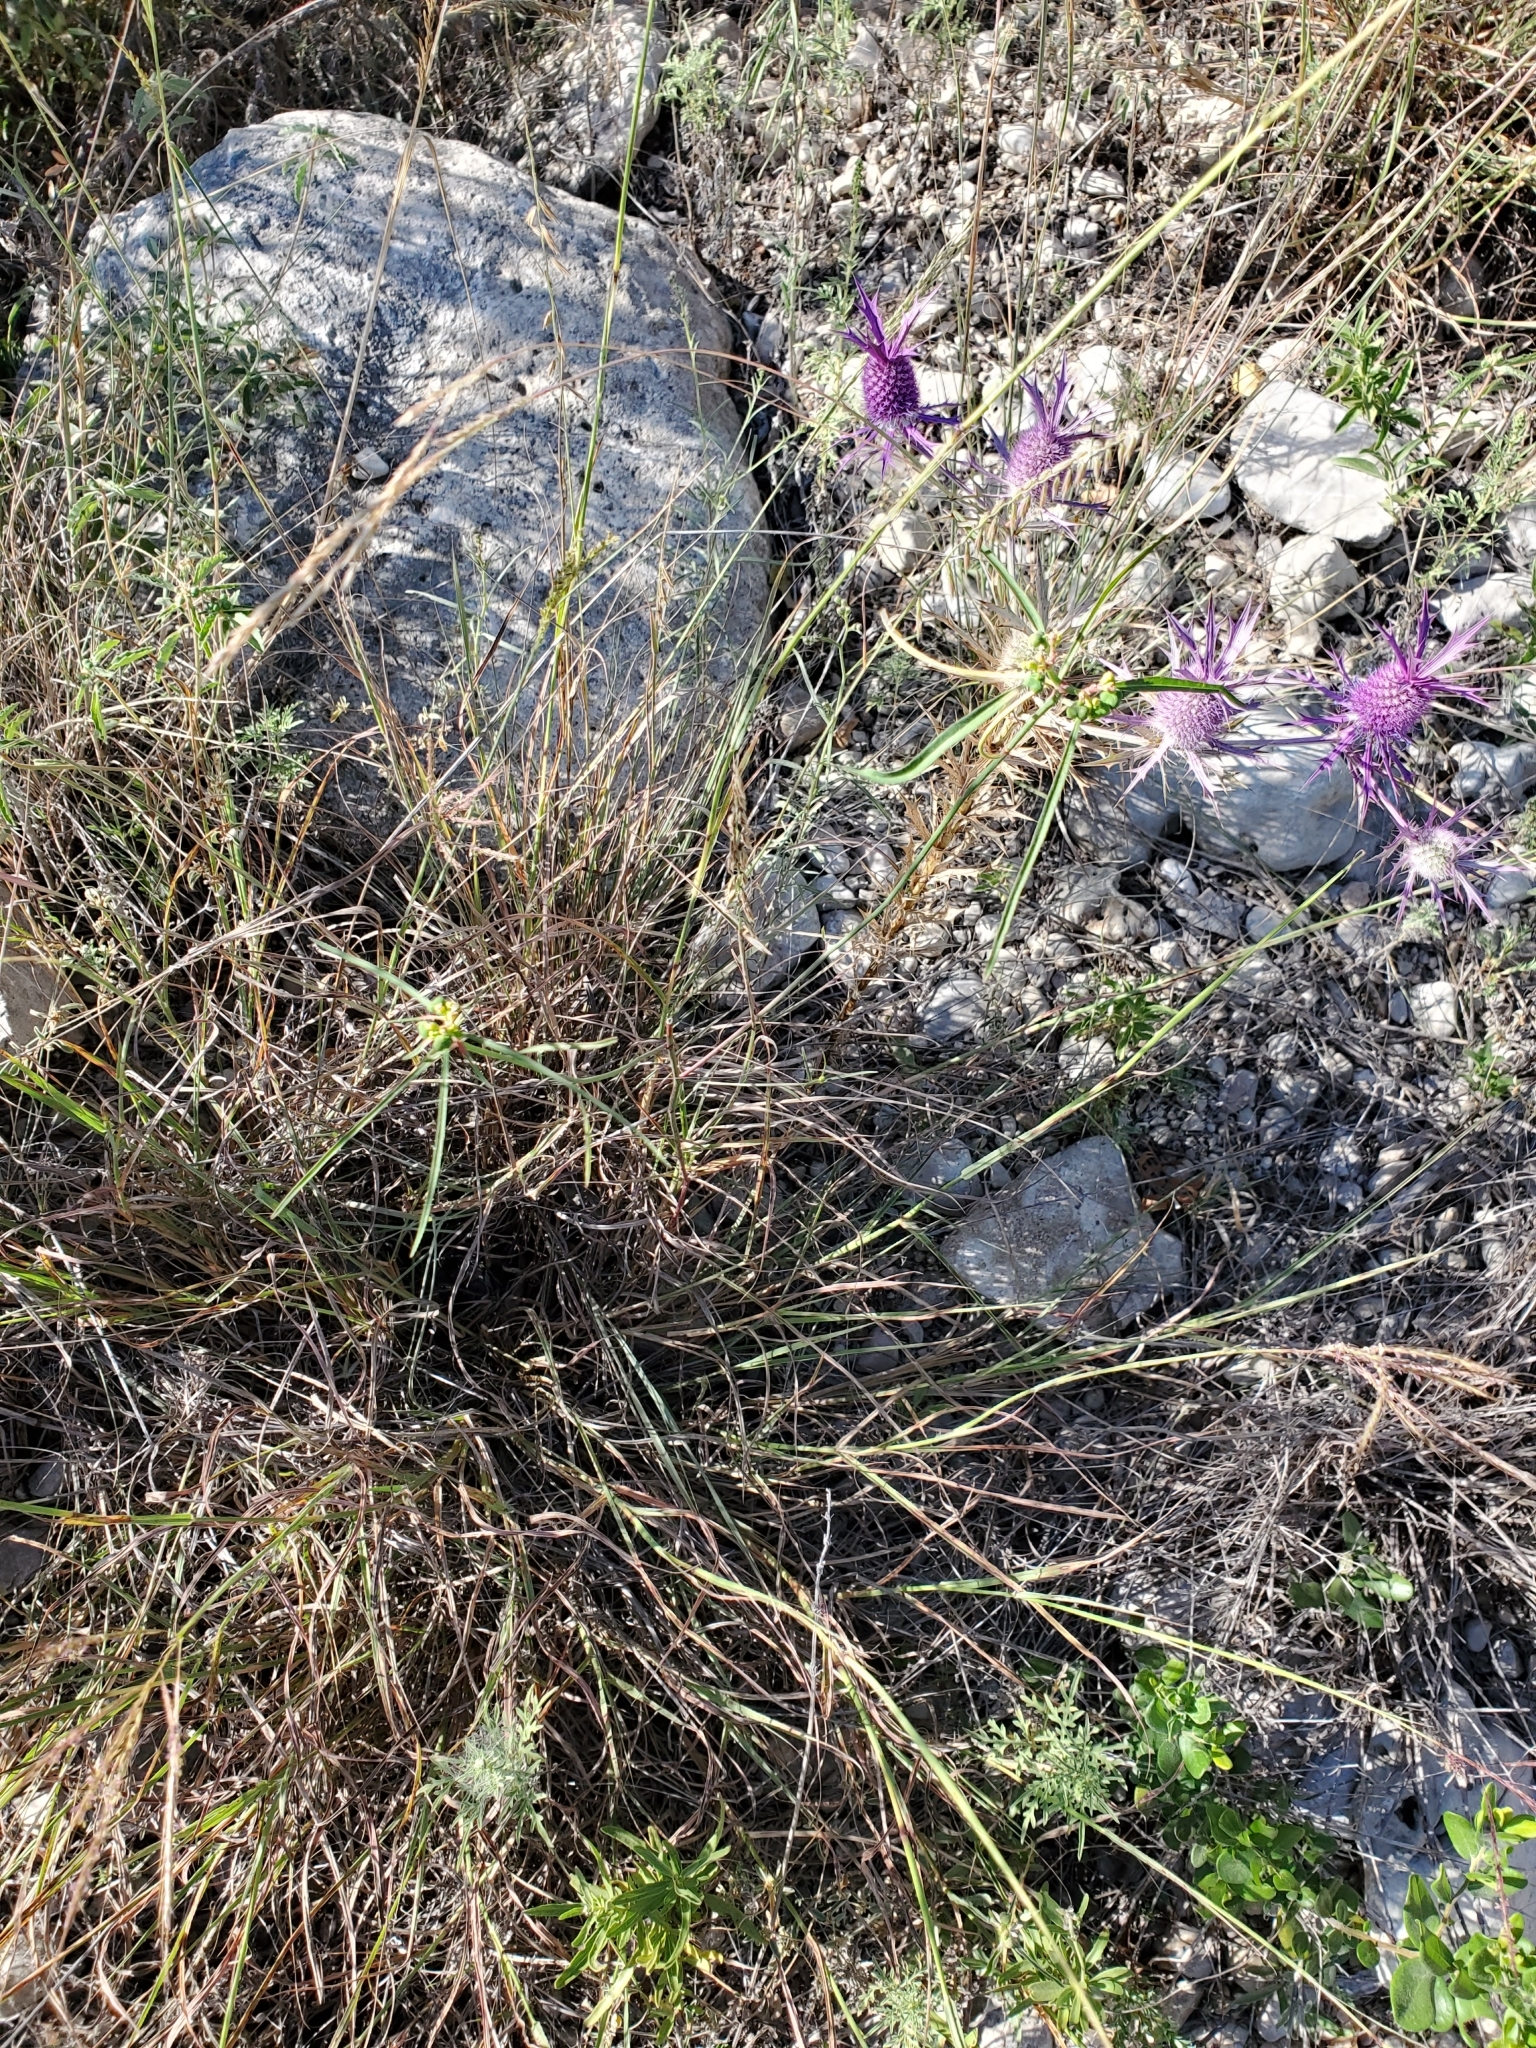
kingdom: Plantae
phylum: Tracheophyta
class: Magnoliopsida
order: Malpighiales
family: Euphorbiaceae
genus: Euphorbia
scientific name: Euphorbia heterophylla
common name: Mexican fireplant
